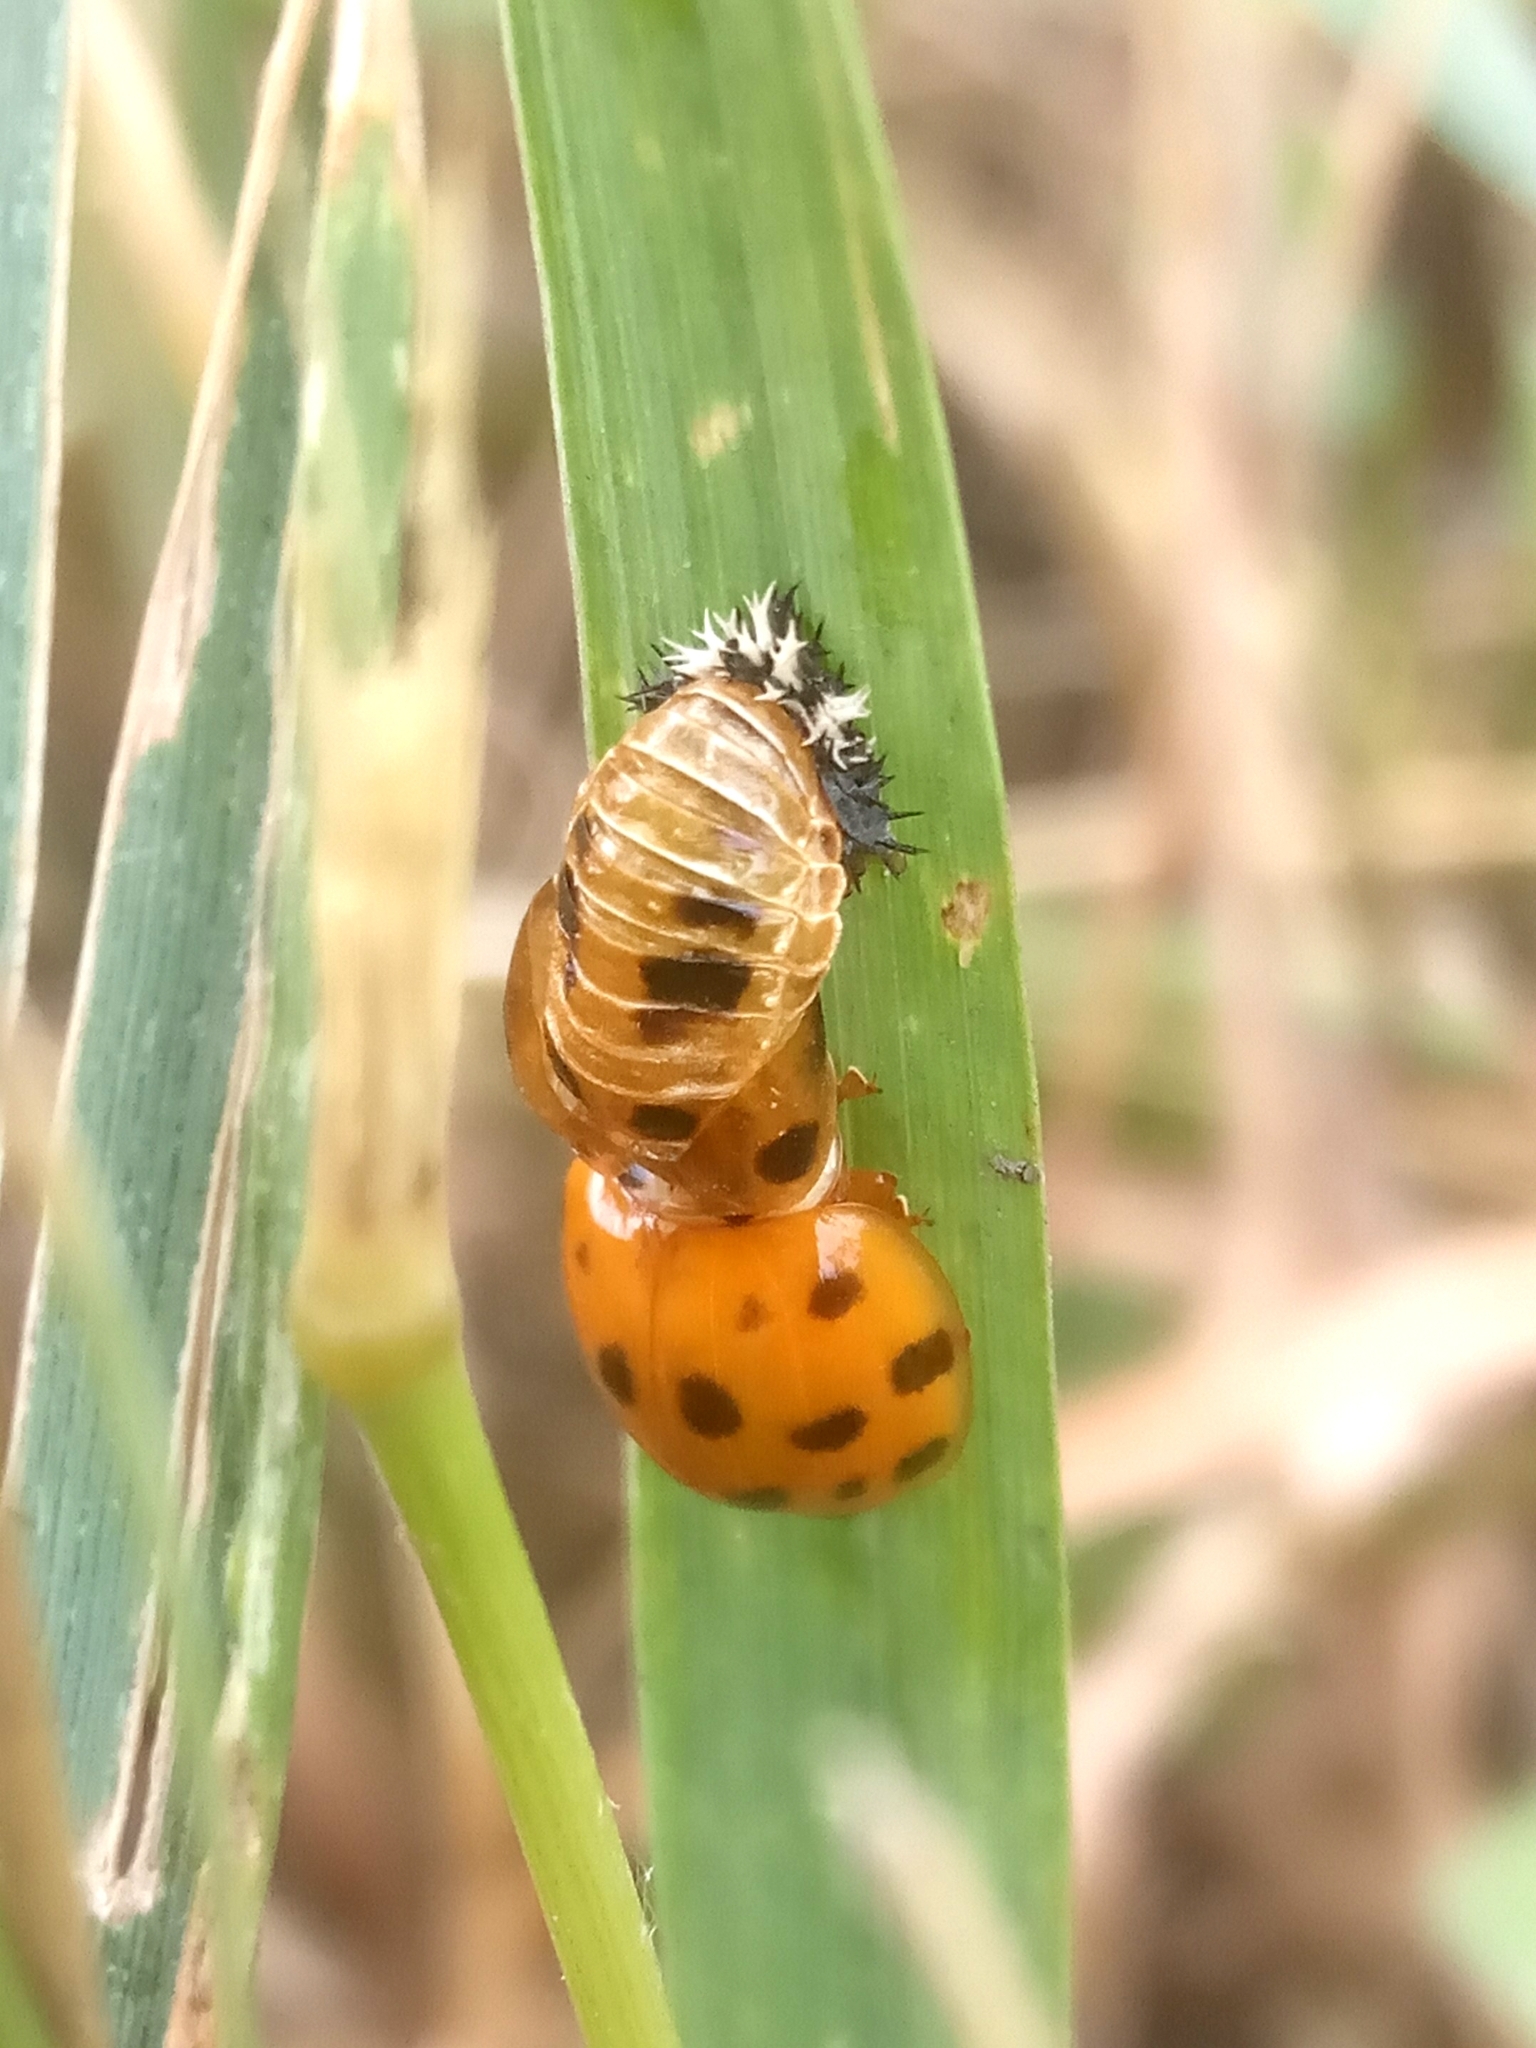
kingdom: Animalia
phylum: Arthropoda
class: Insecta
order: Coleoptera
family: Coccinellidae
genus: Harmonia
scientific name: Harmonia axyridis
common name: Harlequin ladybird
